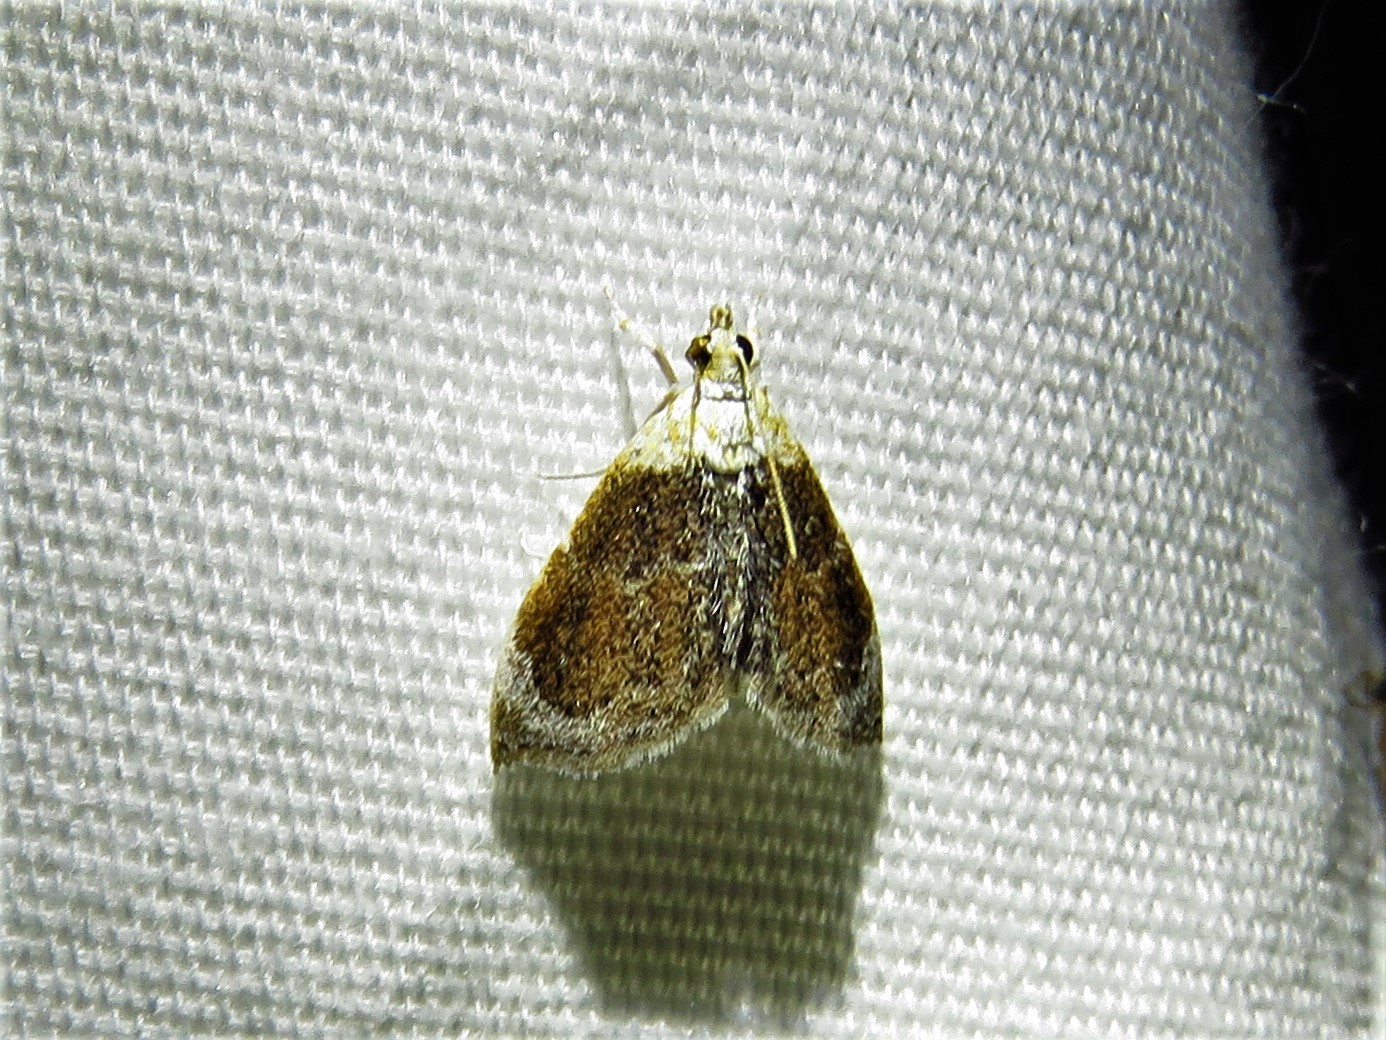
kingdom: Animalia
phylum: Arthropoda
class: Insecta
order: Lepidoptera
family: Crambidae
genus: Lipocosma
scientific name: Lipocosma polingi
